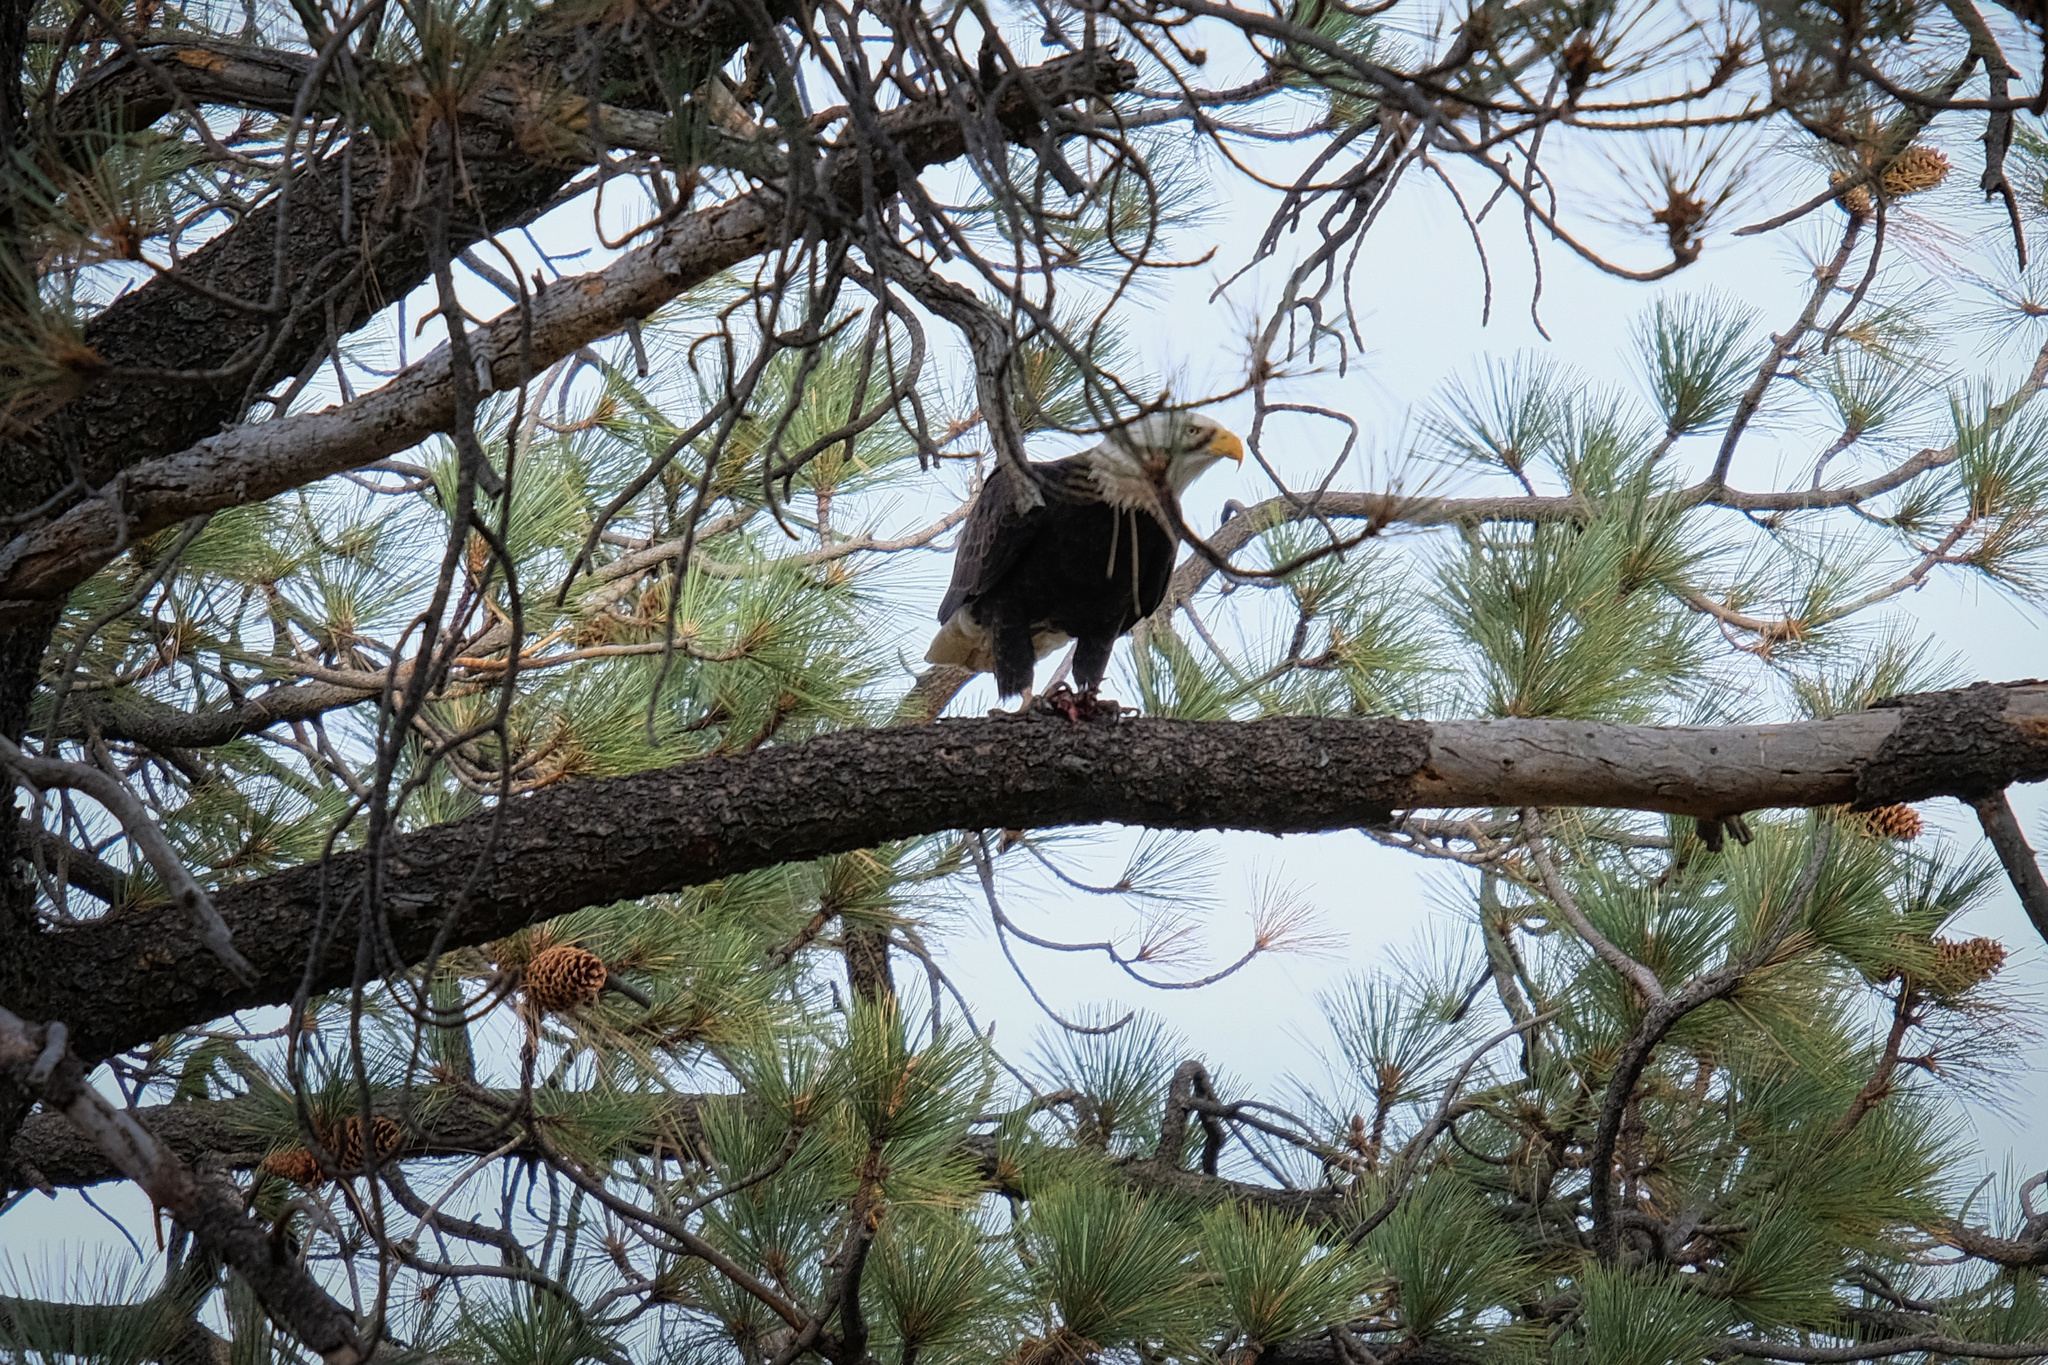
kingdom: Animalia
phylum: Chordata
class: Aves
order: Accipitriformes
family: Accipitridae
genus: Haliaeetus
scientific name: Haliaeetus leucocephalus
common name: Bald eagle
